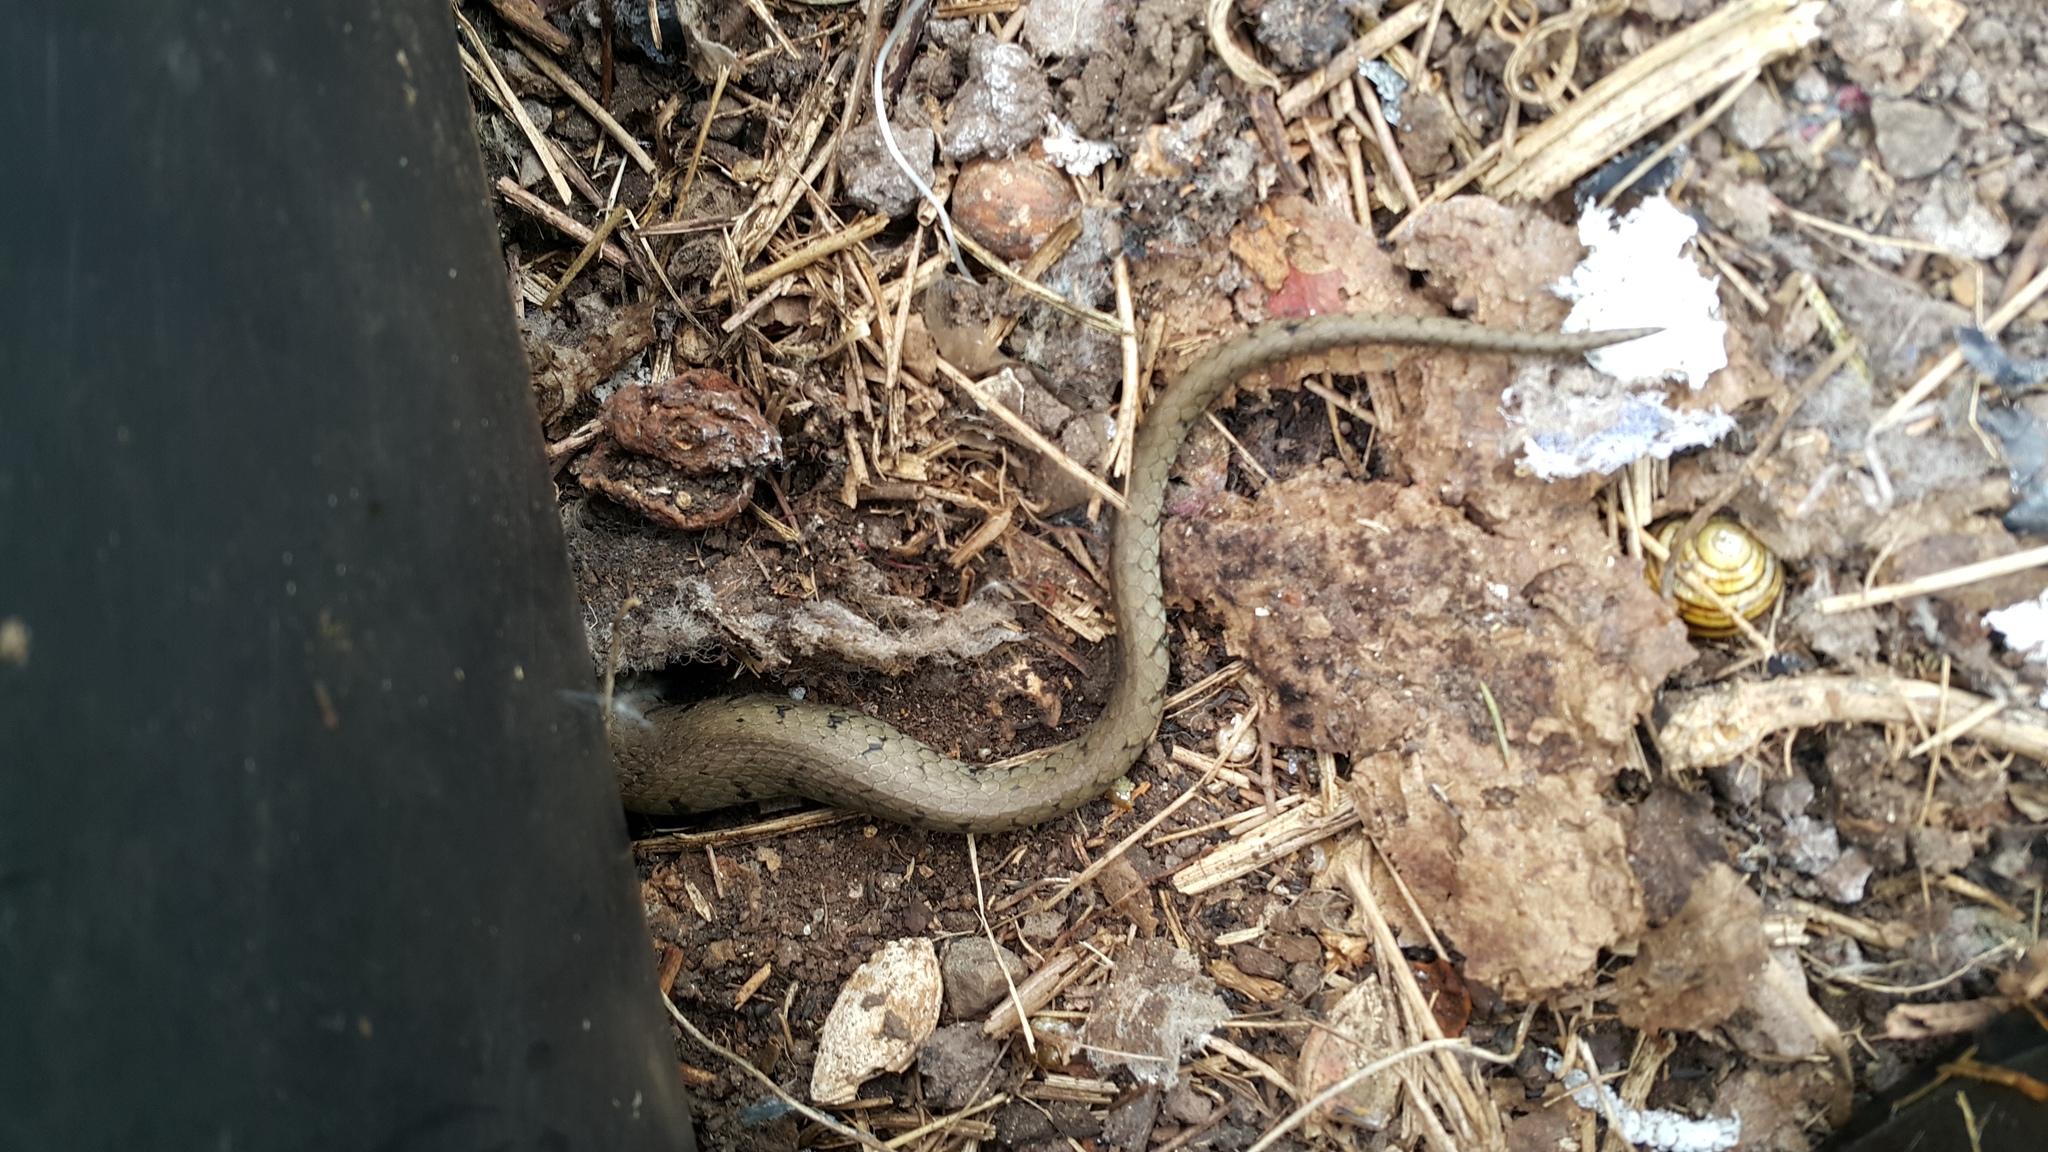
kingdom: Animalia
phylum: Chordata
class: Squamata
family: Colubridae
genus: Natrix
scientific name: Natrix helvetica
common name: Banded grass snake
